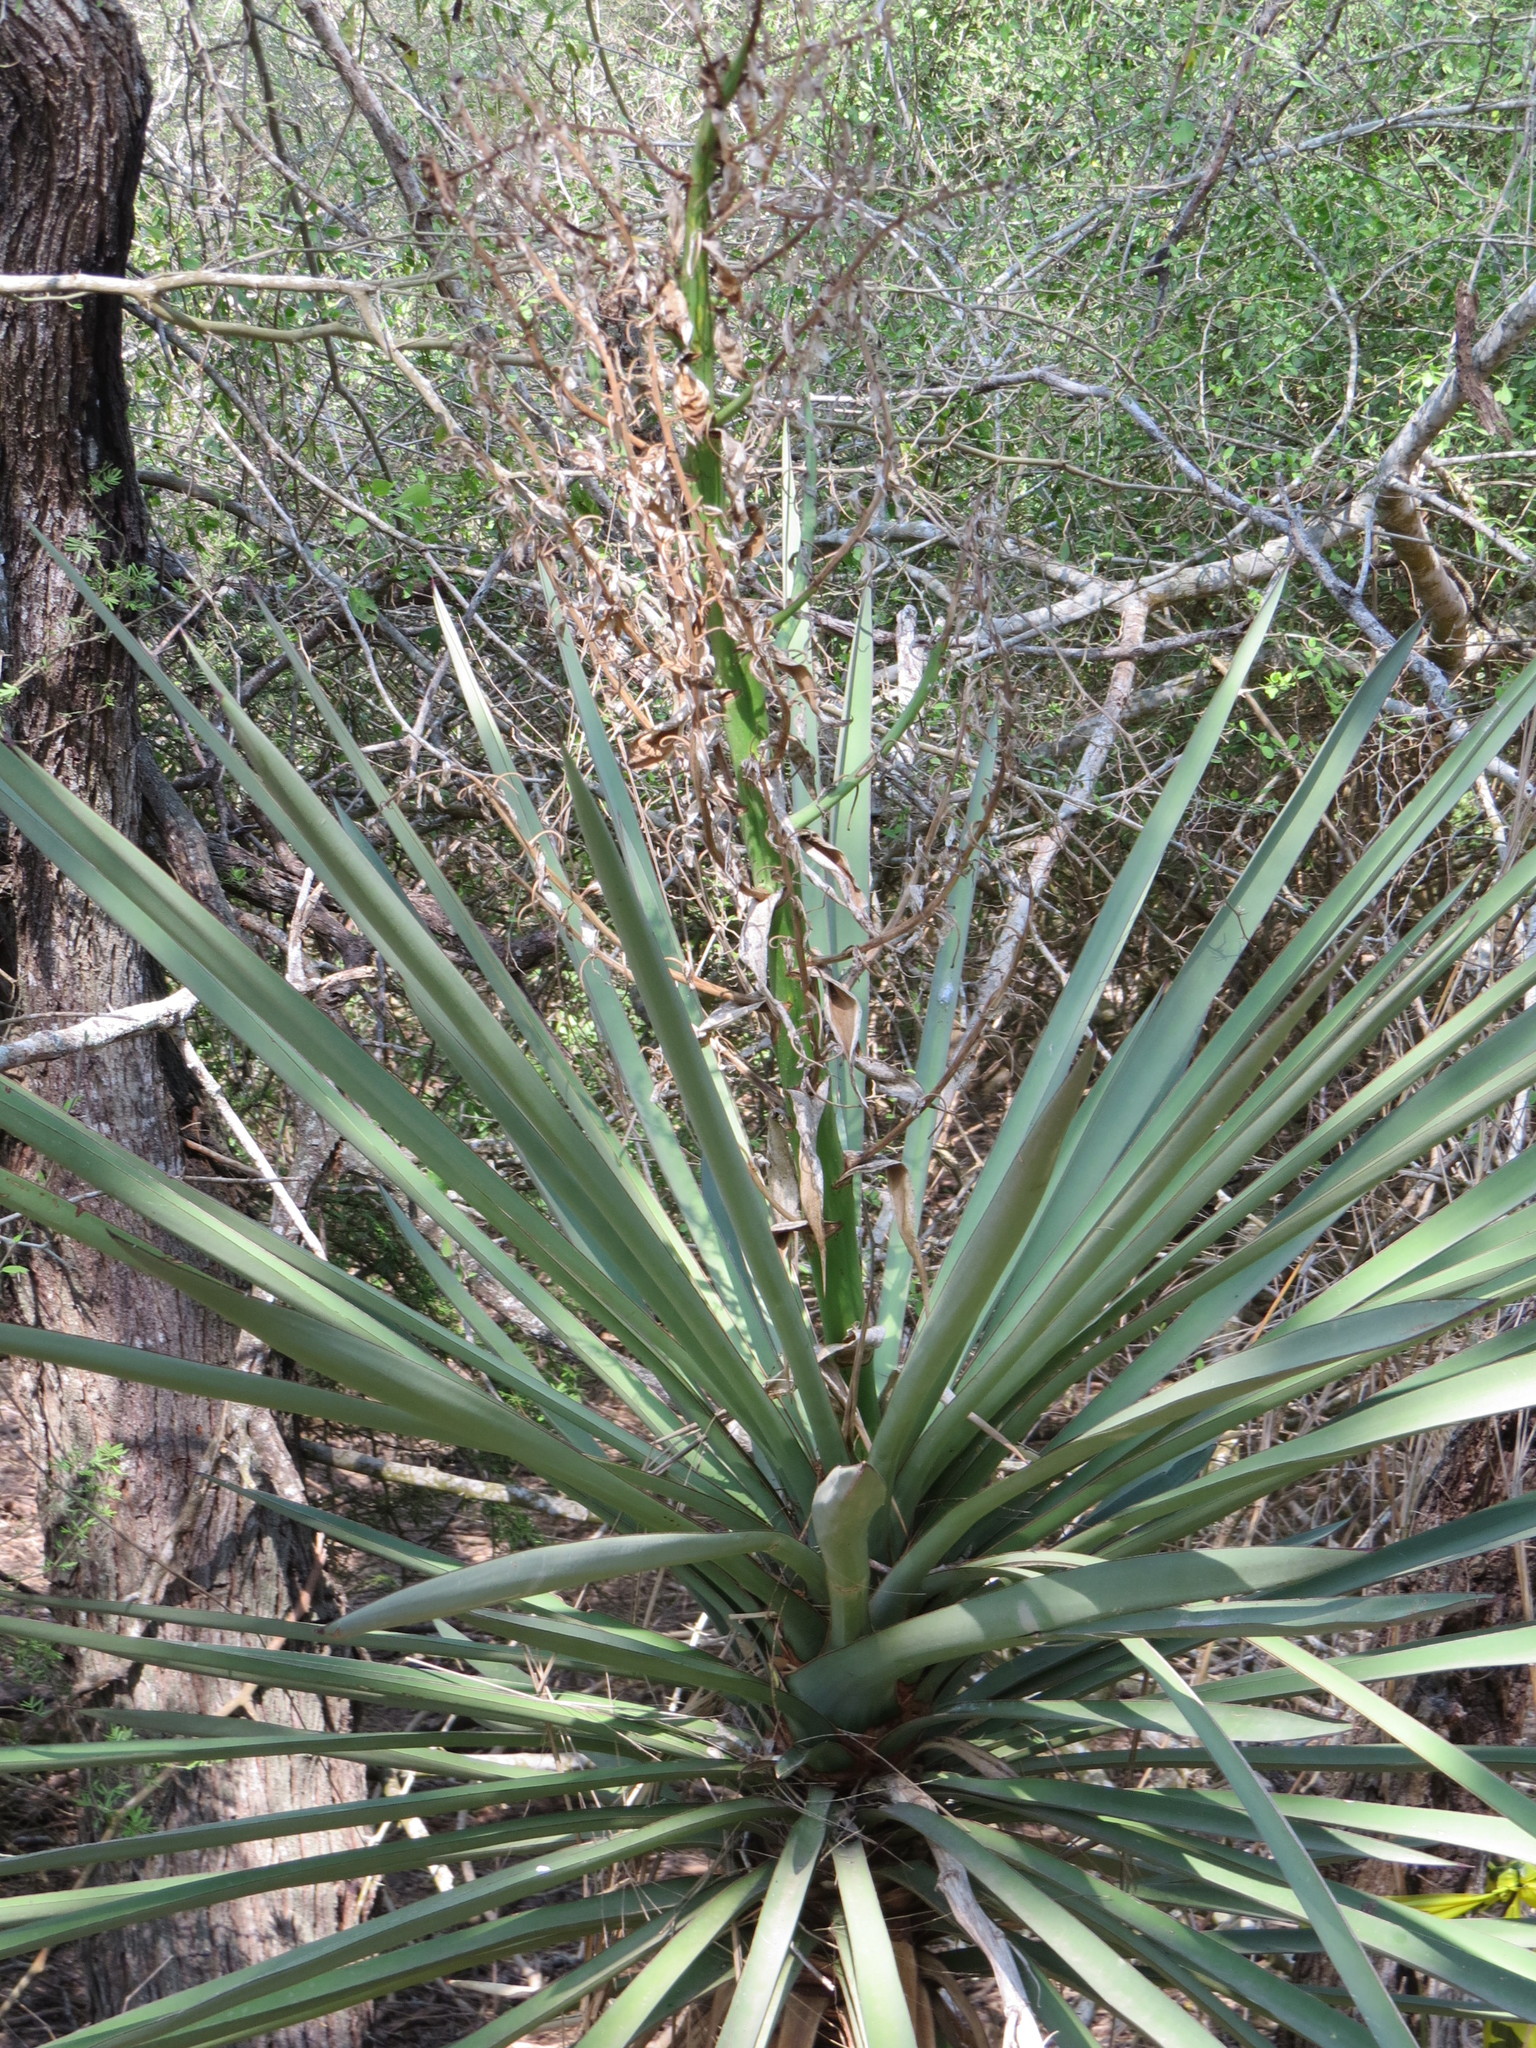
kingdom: Plantae
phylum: Tracheophyta
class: Liliopsida
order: Asparagales
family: Asparagaceae
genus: Yucca
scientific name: Yucca treculiana
